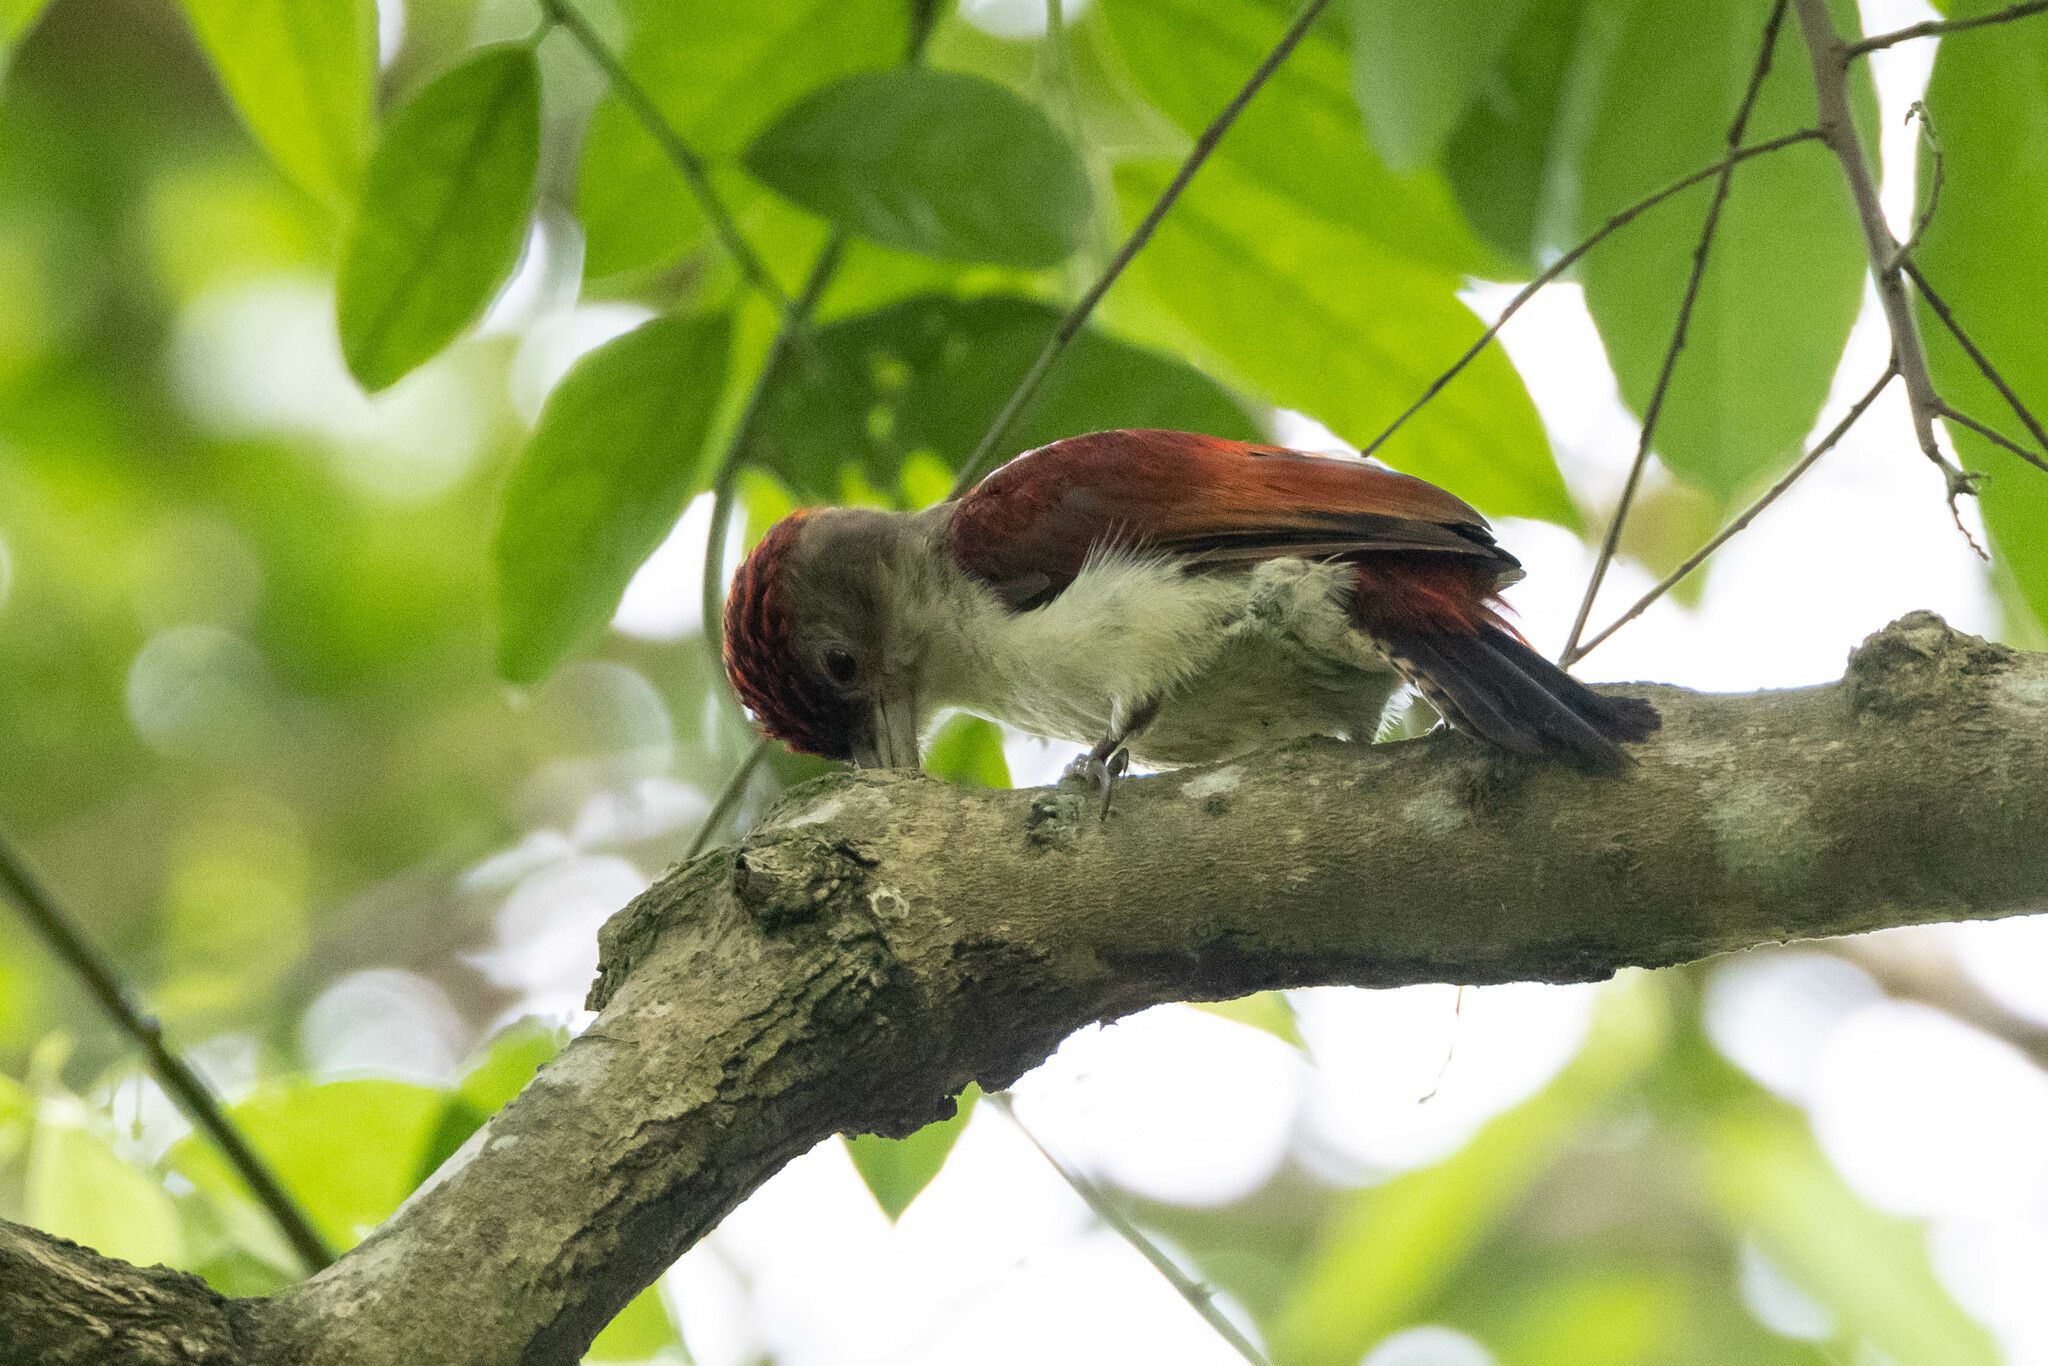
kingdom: Animalia
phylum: Chordata
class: Aves
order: Piciformes
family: Picidae
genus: Veniliornis
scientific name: Veniliornis callonotus
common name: Scarlet-backed woodpecker
